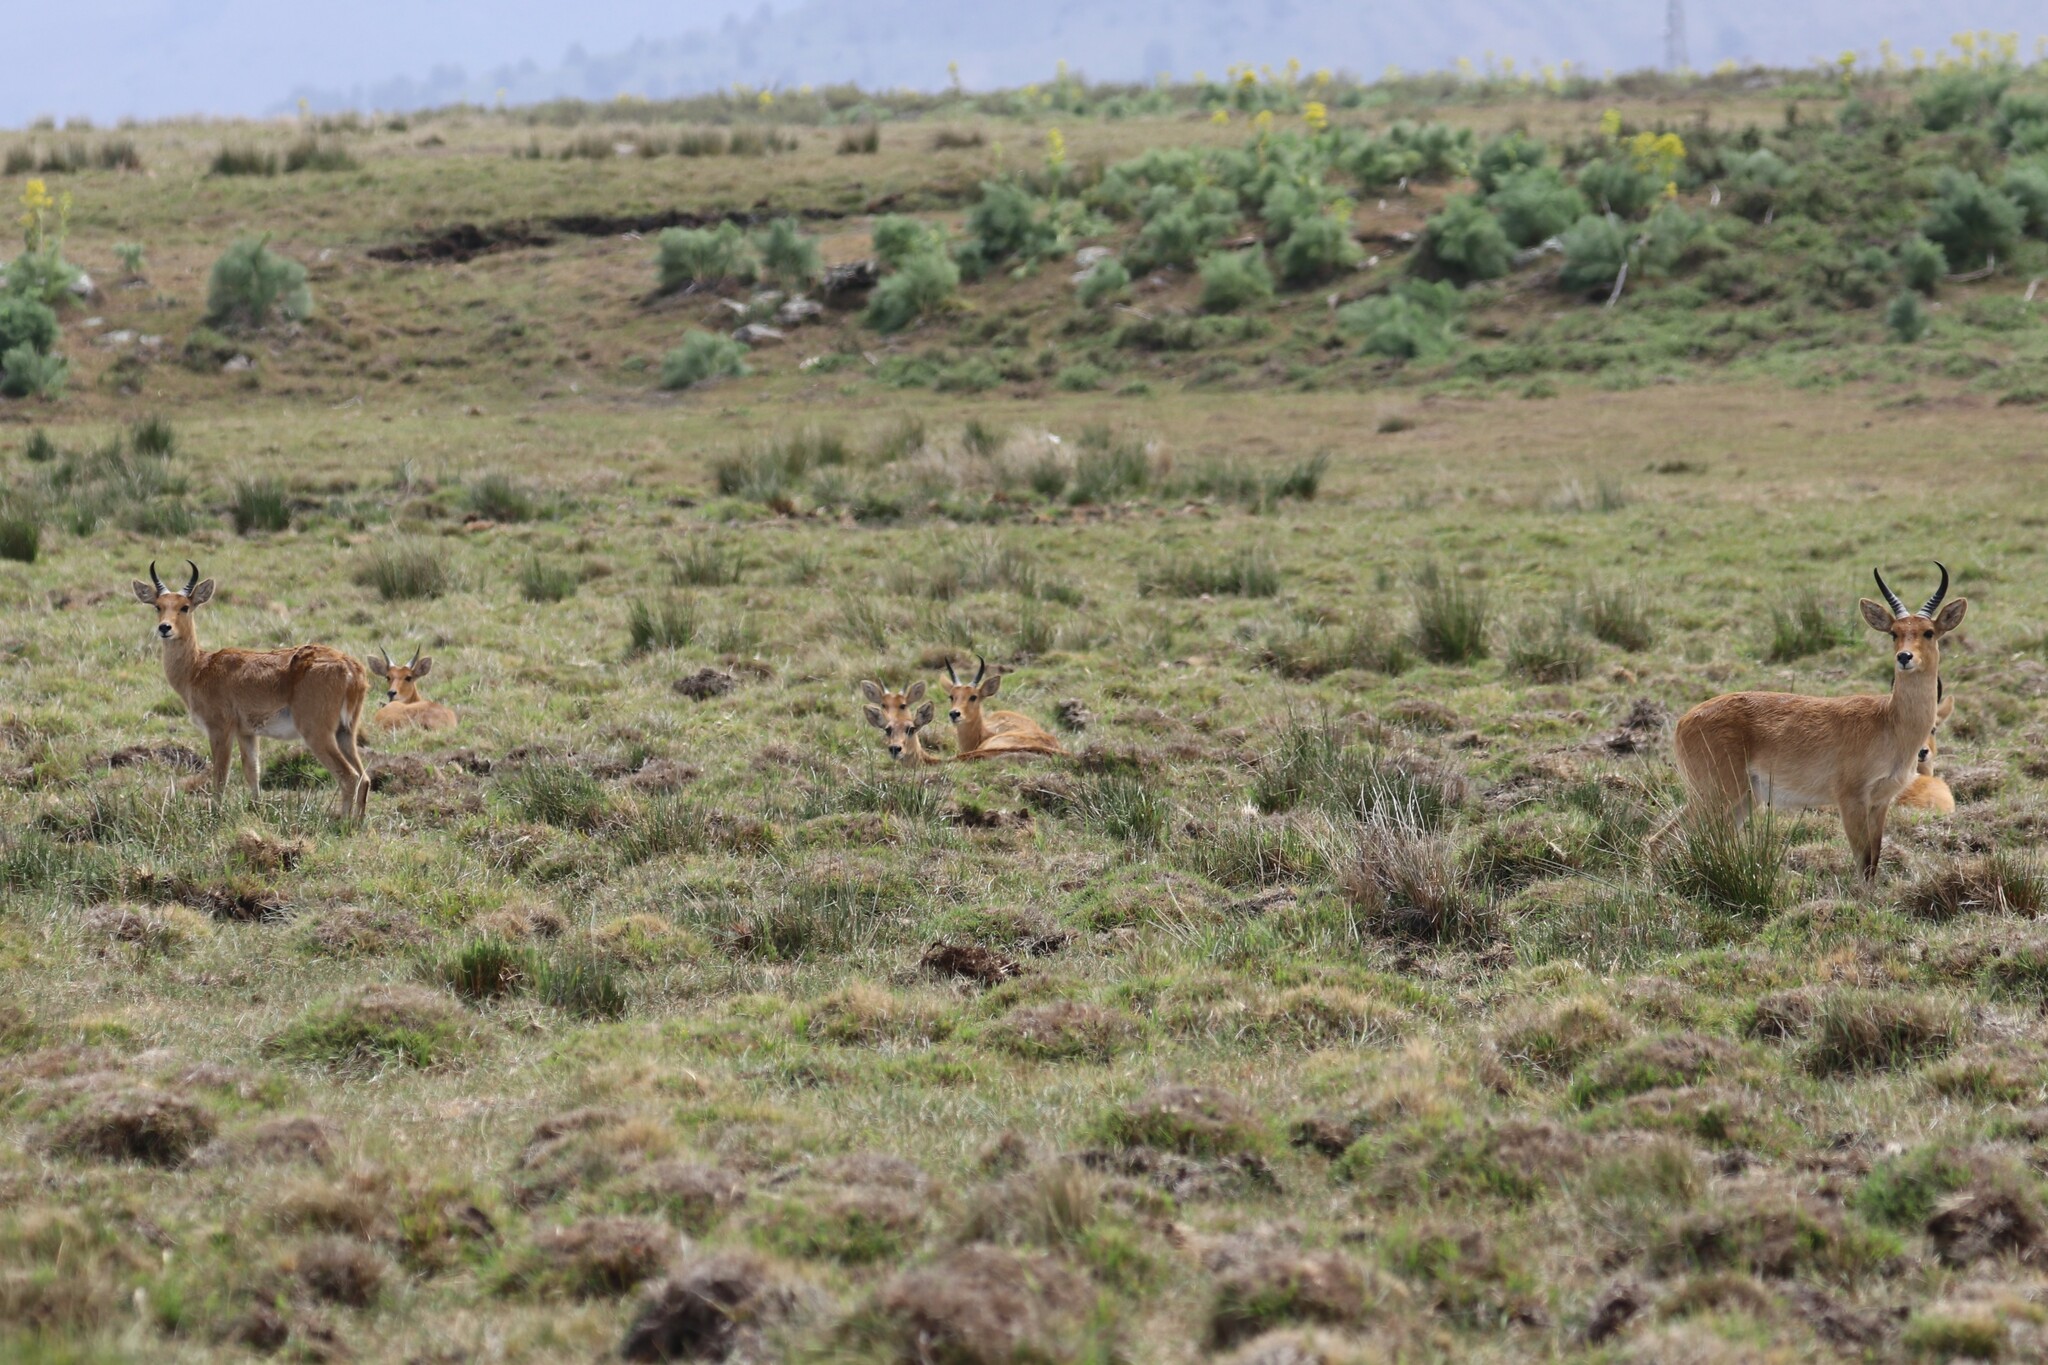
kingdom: Animalia
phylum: Chordata
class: Mammalia
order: Artiodactyla
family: Bovidae
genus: Redunca
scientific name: Redunca redunca
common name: Common reedbuck
